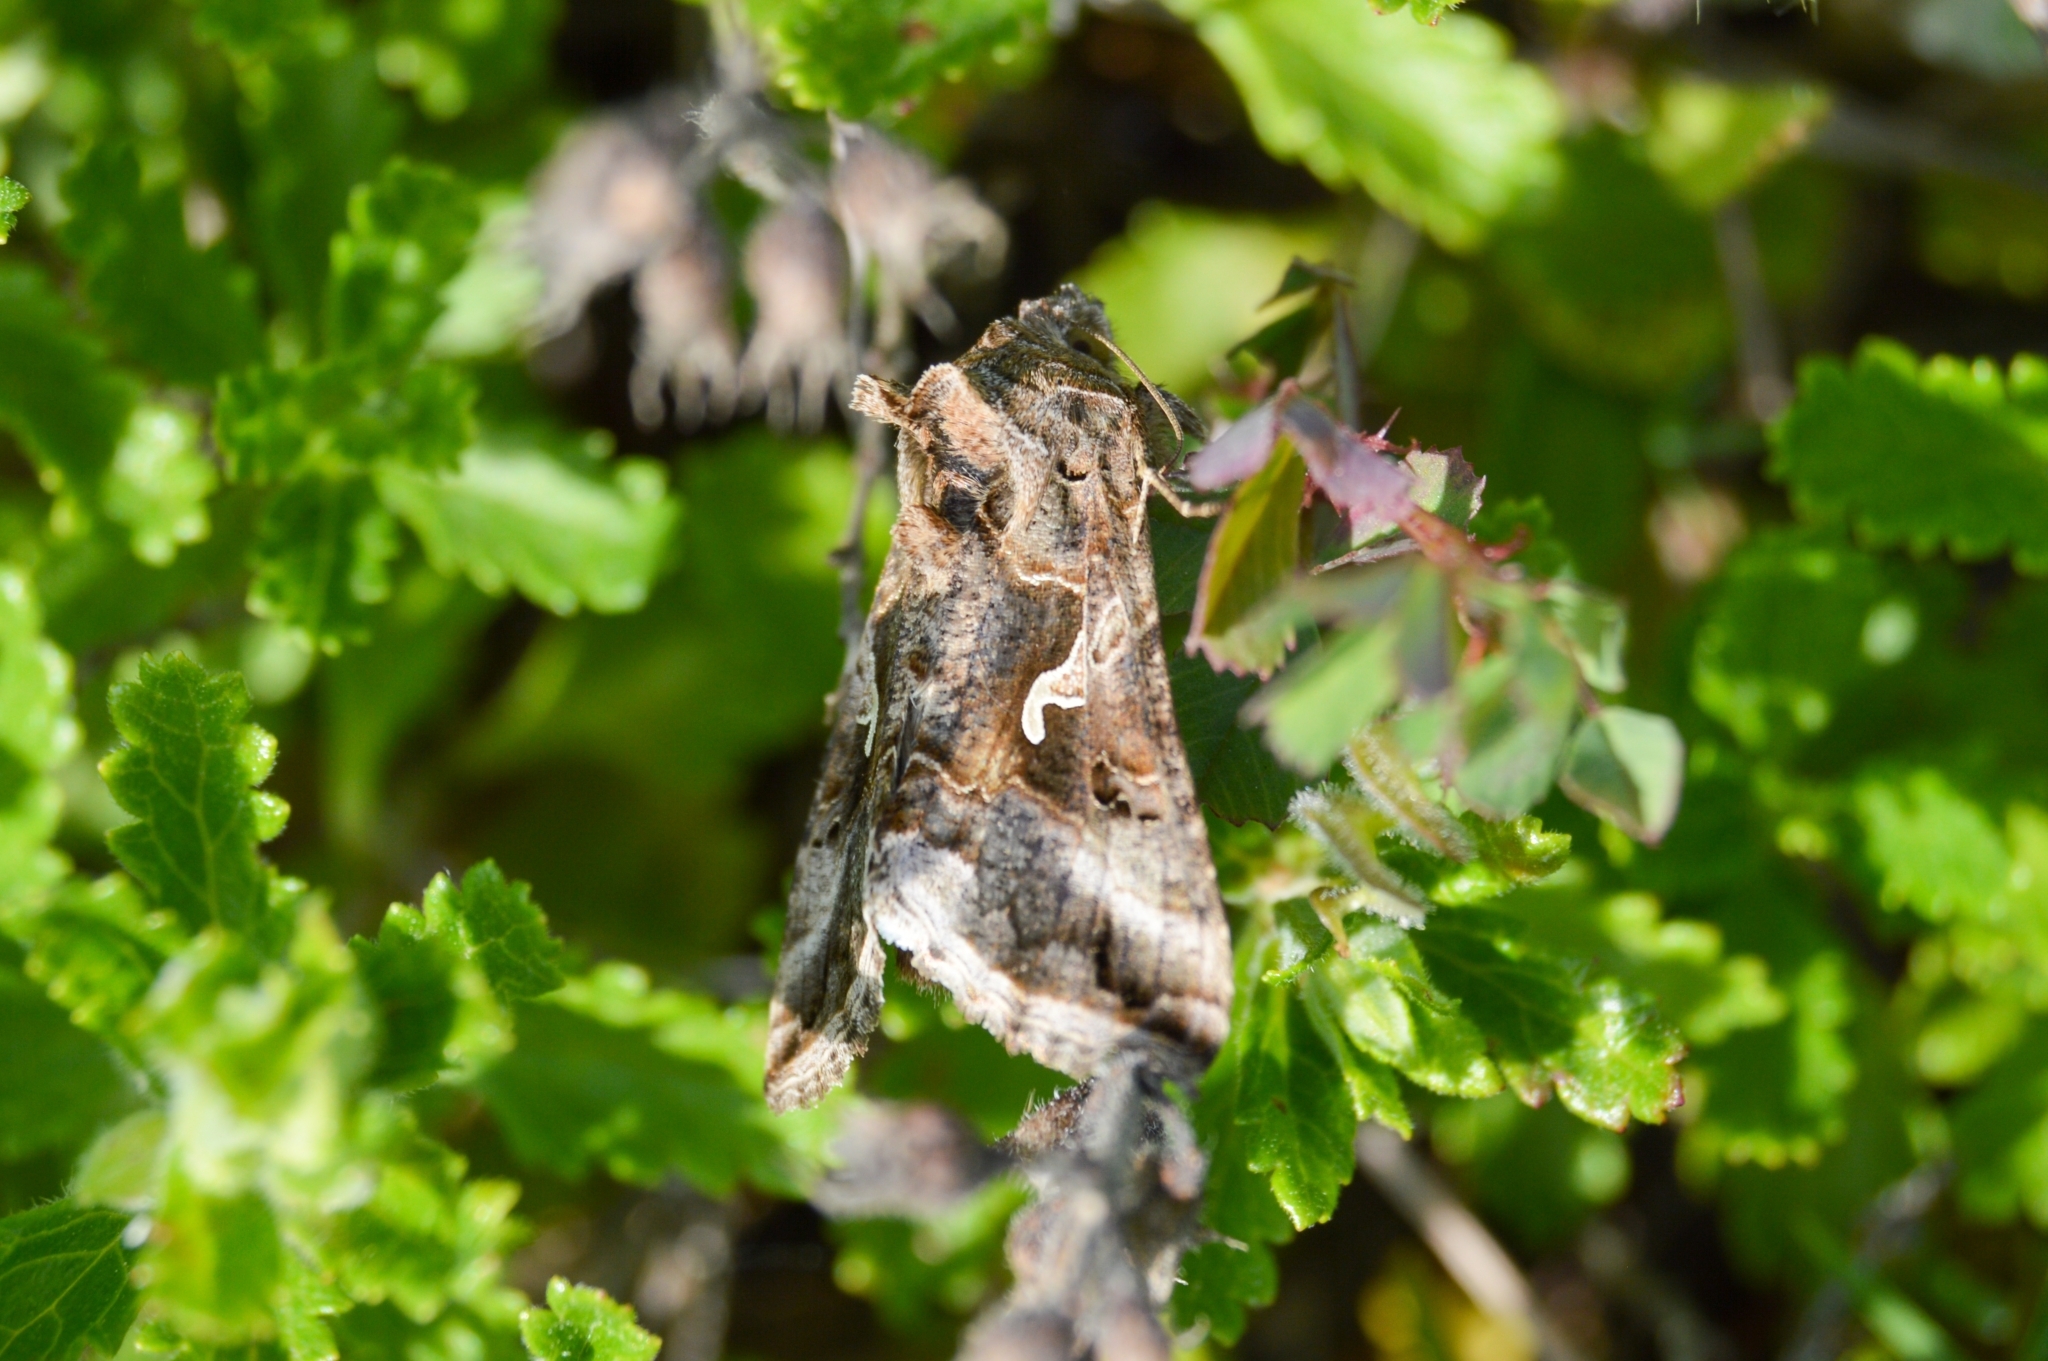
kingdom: Animalia
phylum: Arthropoda
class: Insecta
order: Lepidoptera
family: Noctuidae
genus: Autographa
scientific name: Autographa gamma
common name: Silver y
